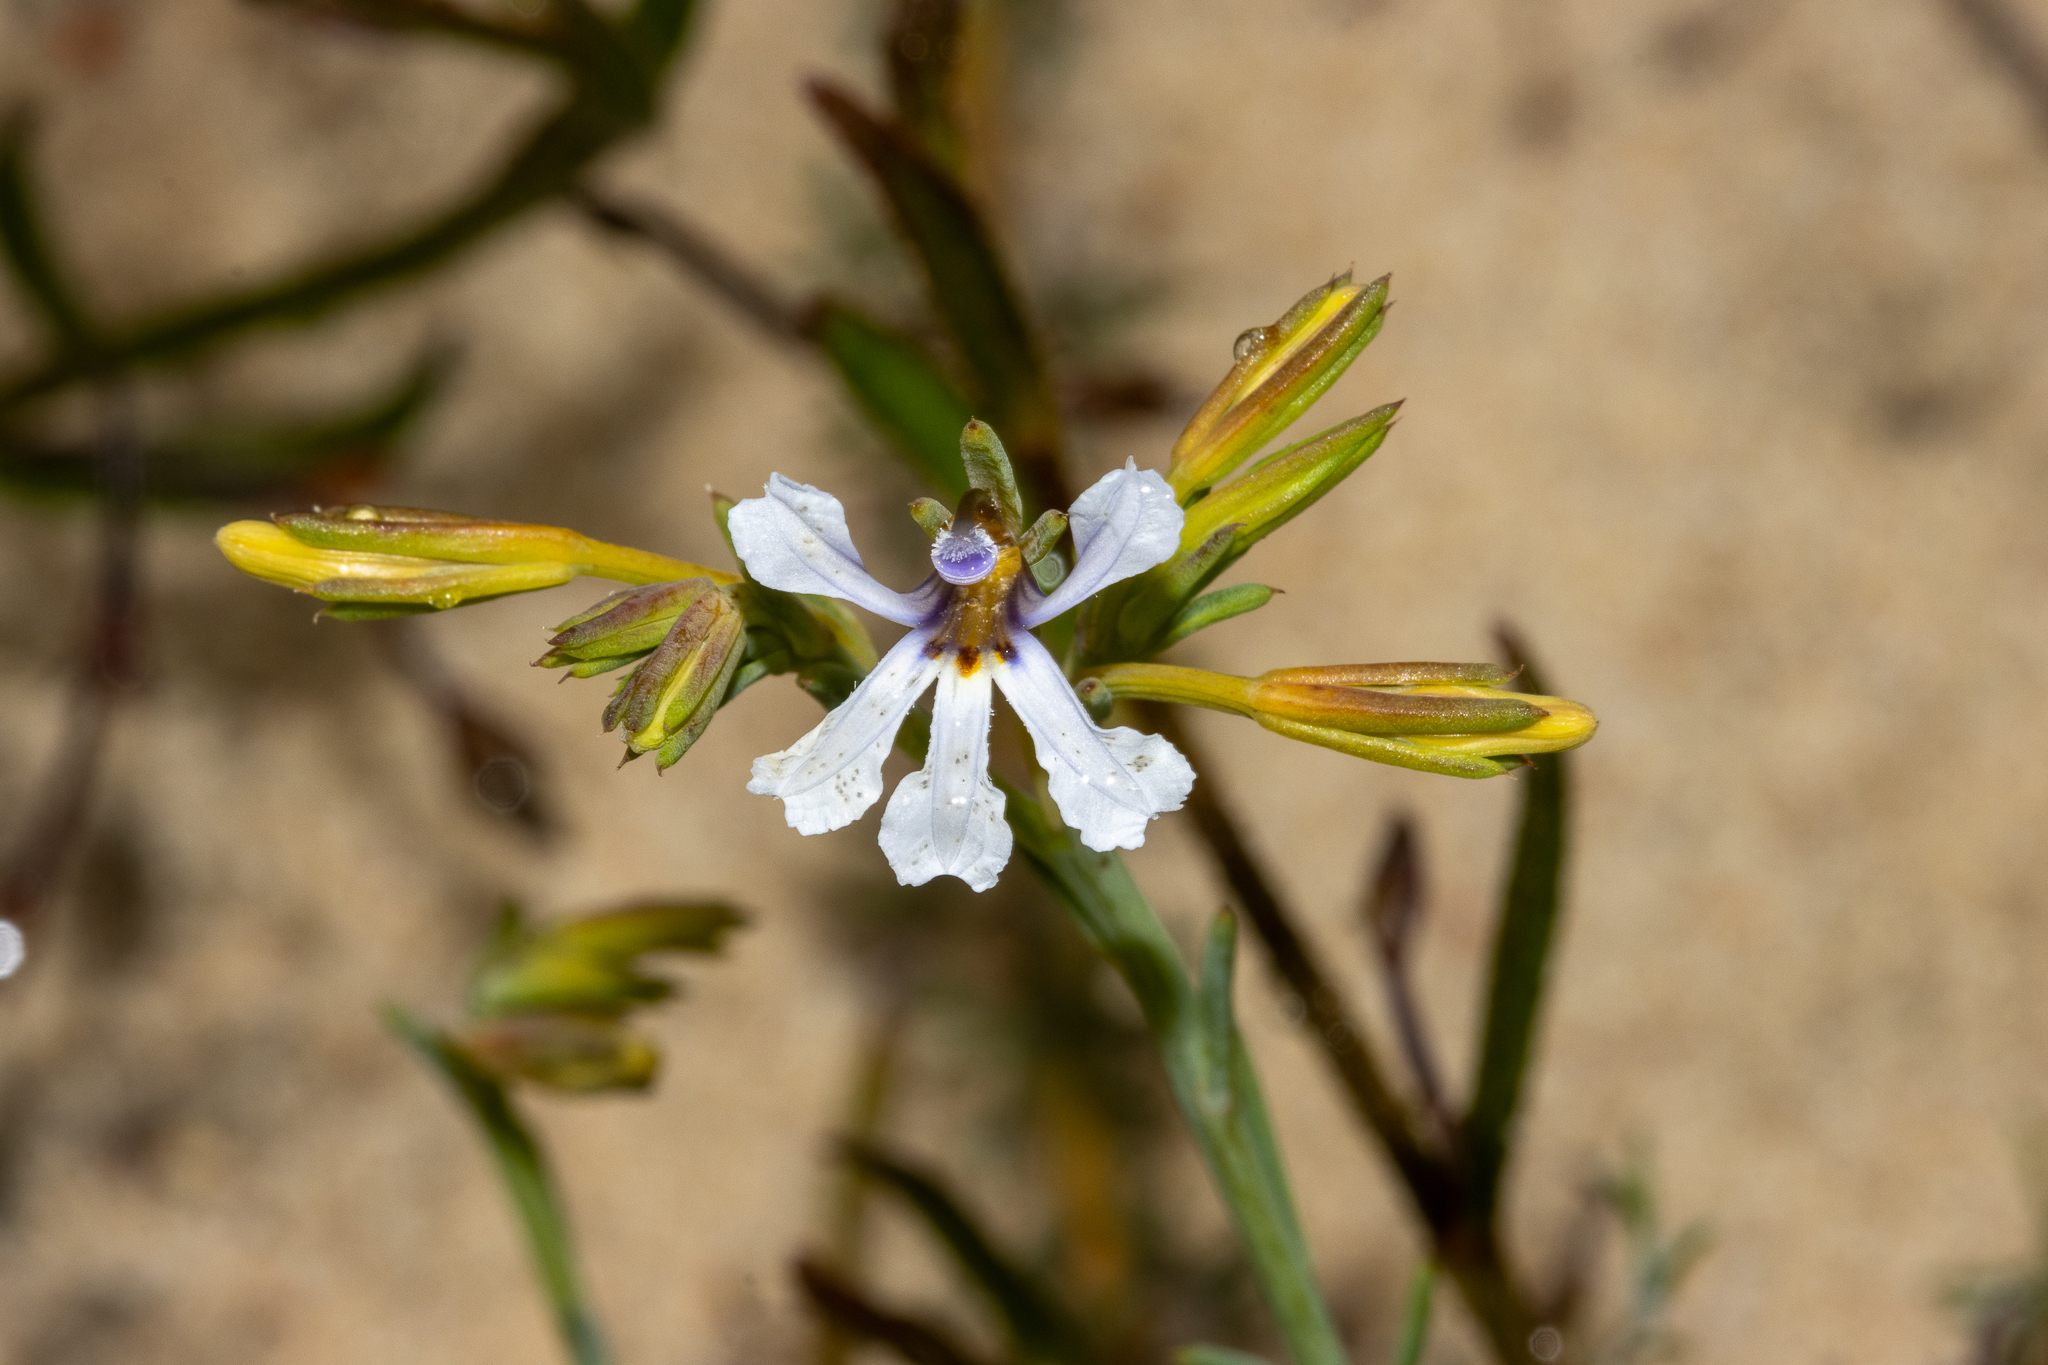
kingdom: Plantae
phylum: Tracheophyta
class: Magnoliopsida
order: Asterales
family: Goodeniaceae
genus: Lechenaultia
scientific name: Lechenaultia floribunda
